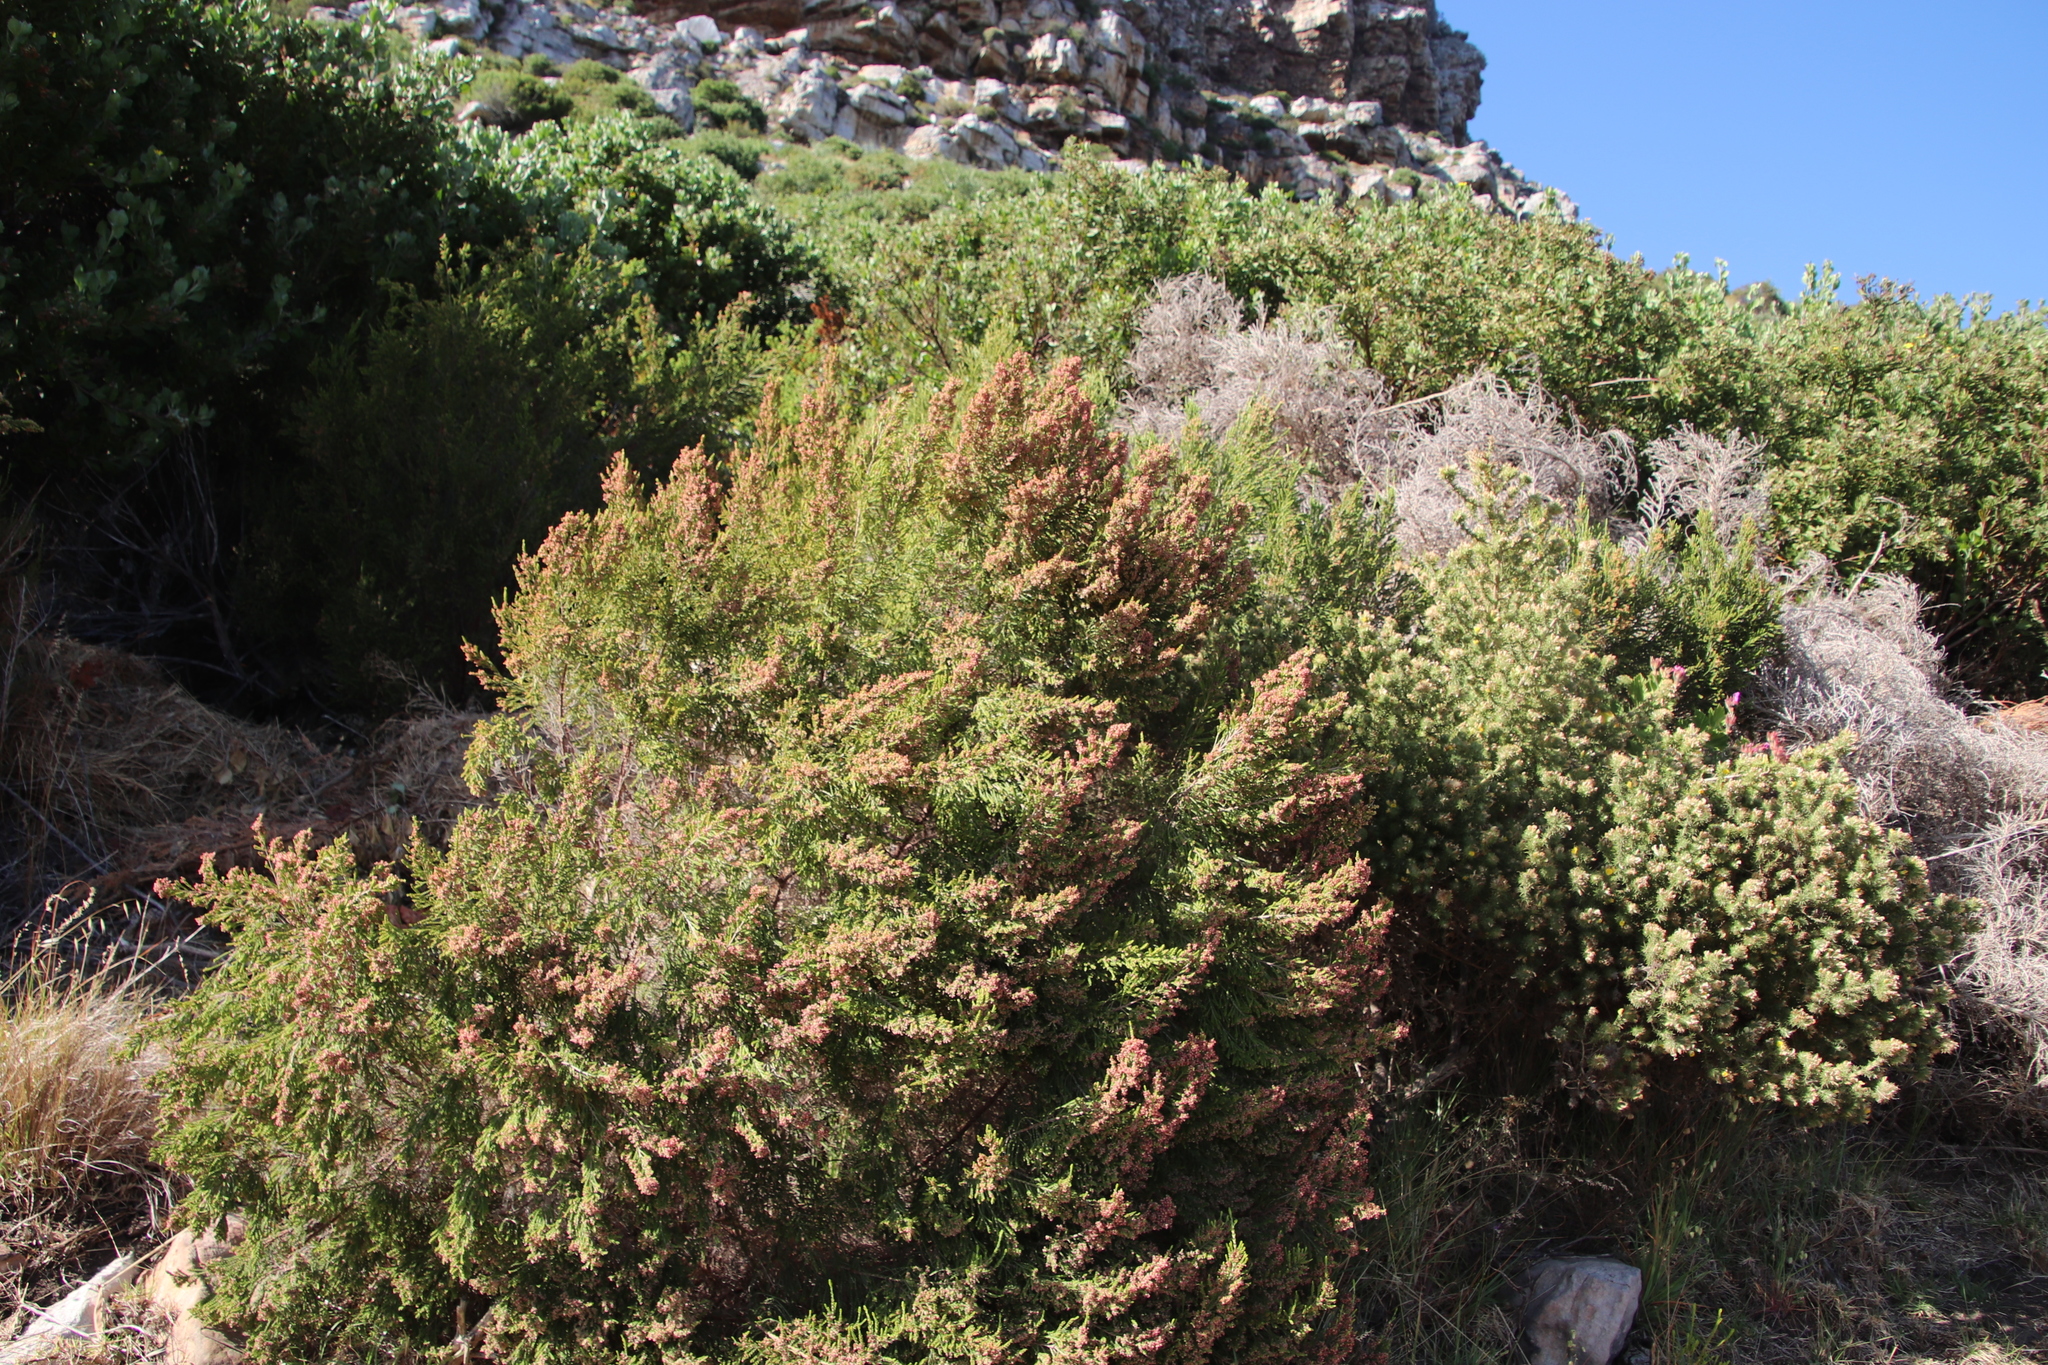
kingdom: Plantae
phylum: Tracheophyta
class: Magnoliopsida
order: Malvales
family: Thymelaeaceae
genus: Passerina
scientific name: Passerina corymbosa
